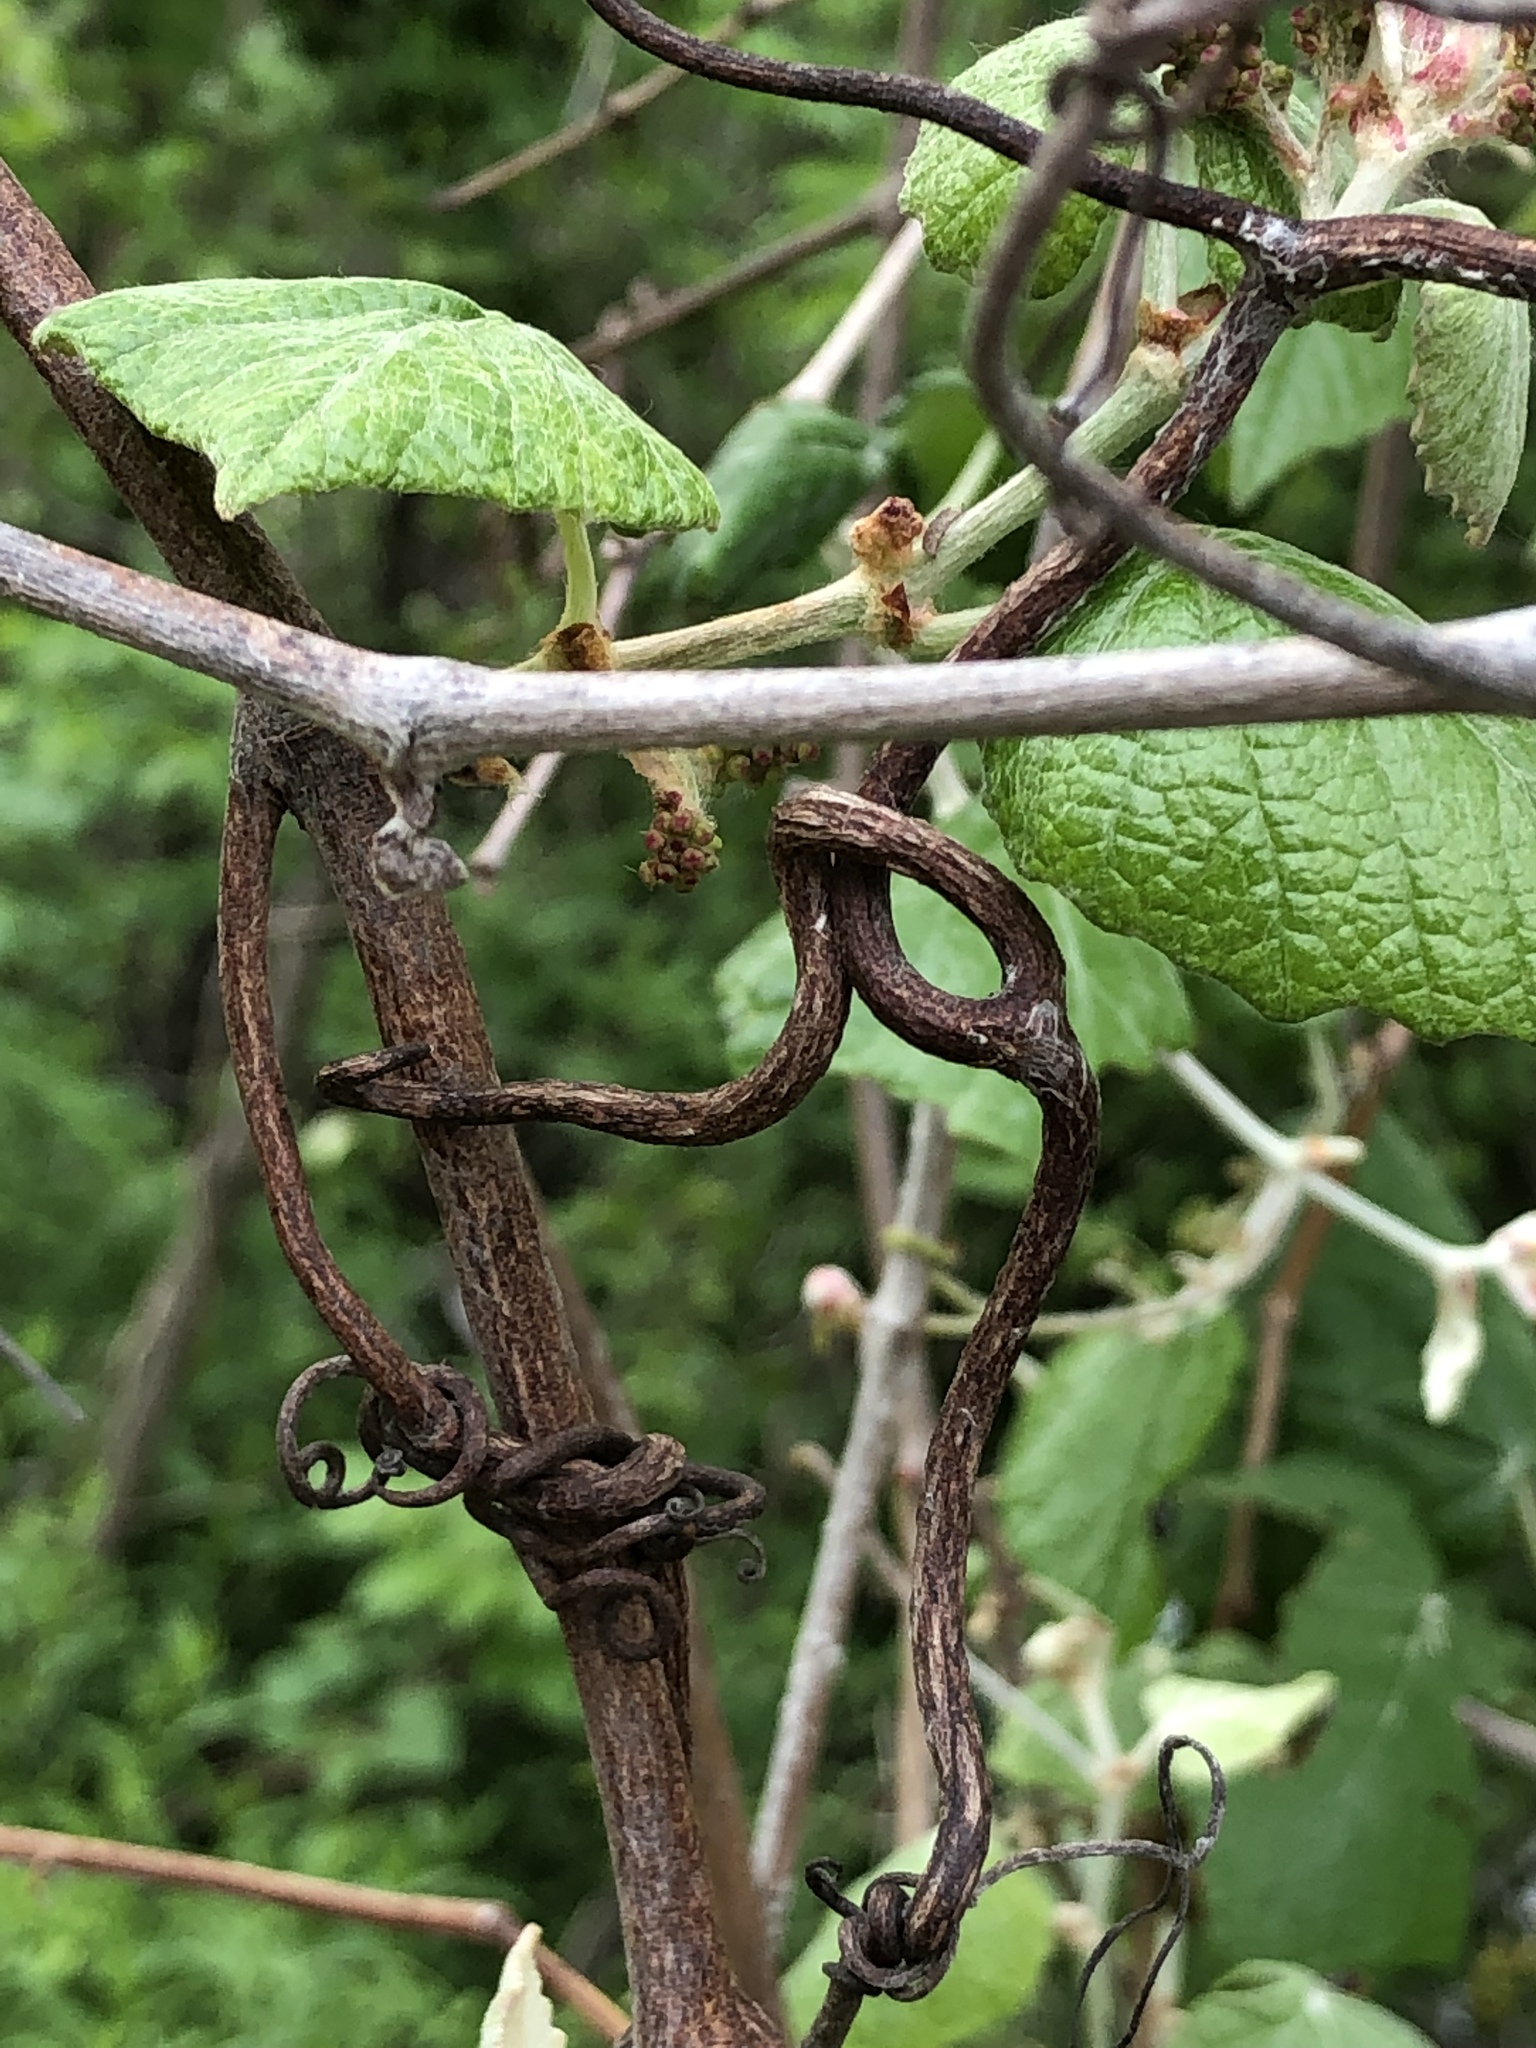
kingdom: Plantae
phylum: Tracheophyta
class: Magnoliopsida
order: Vitales
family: Vitaceae
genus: Vitis
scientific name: Vitis mustangensis
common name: Mustang grape
